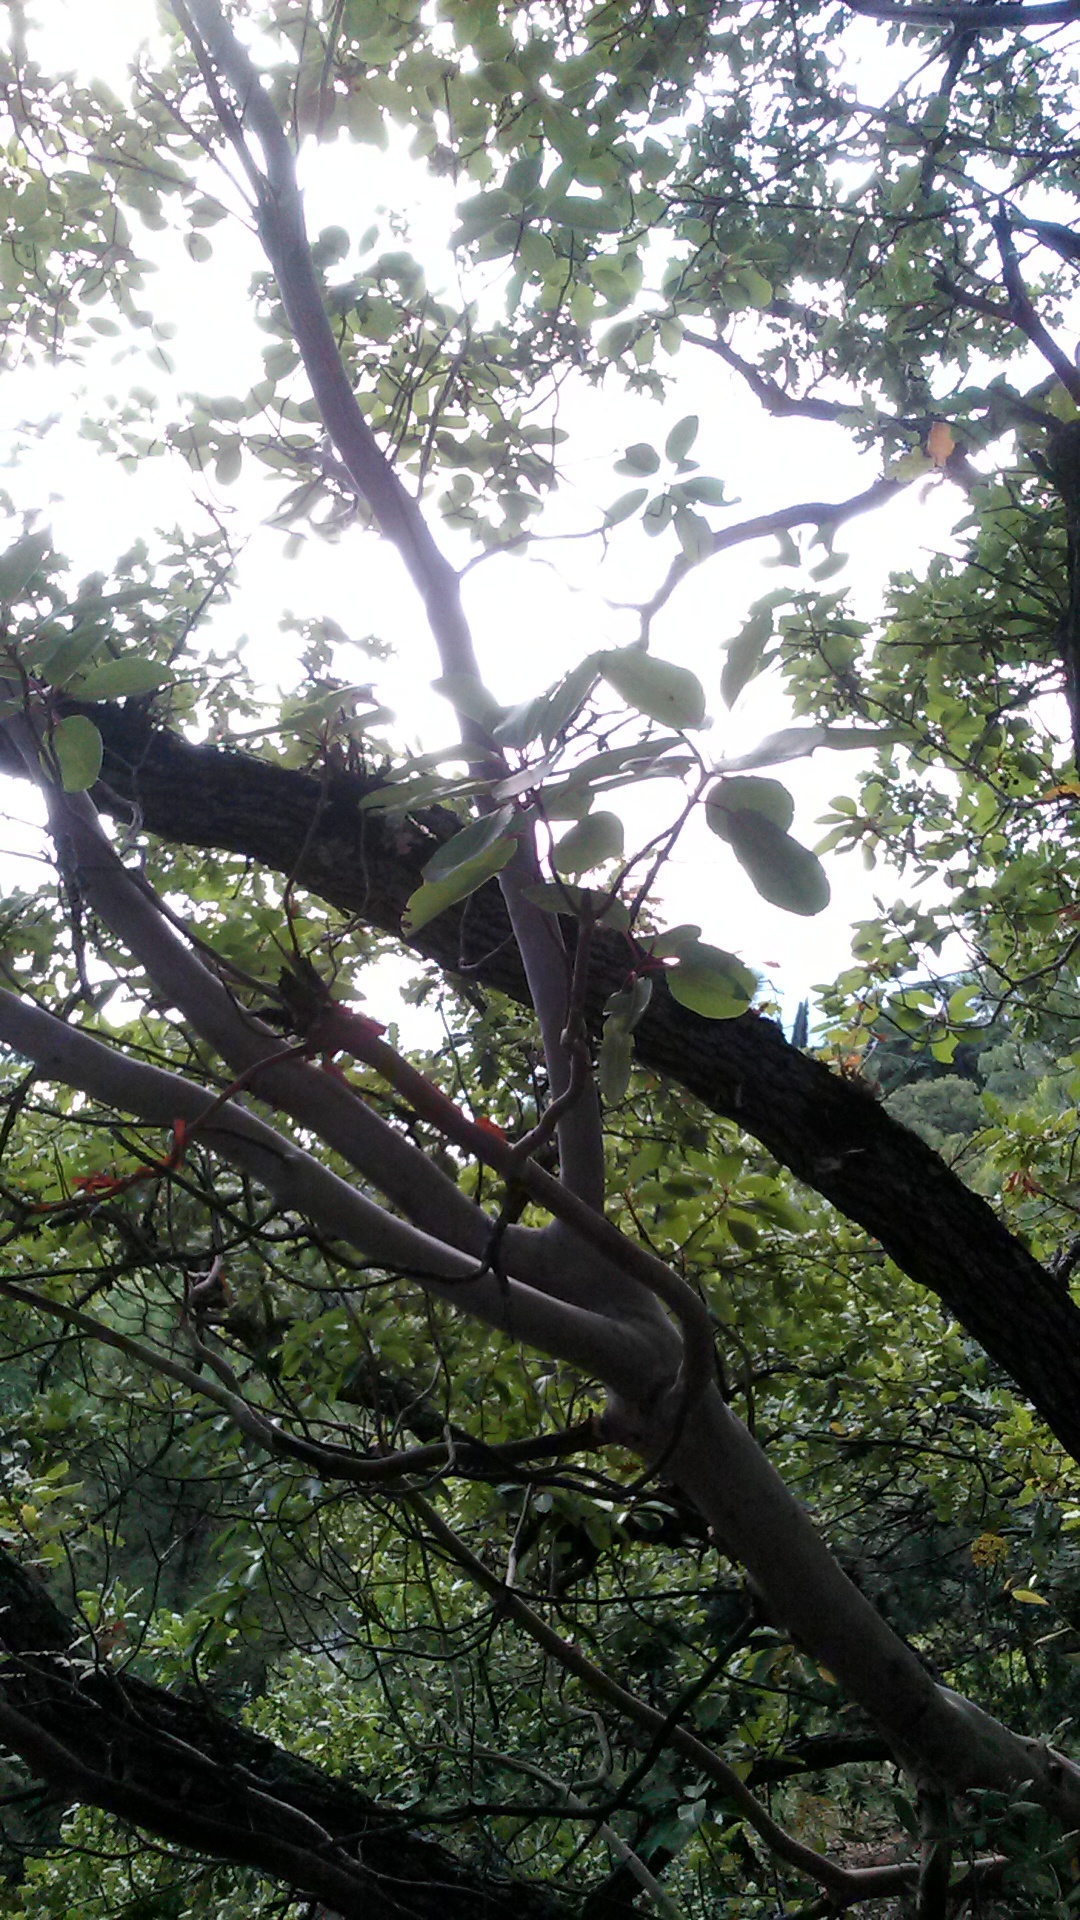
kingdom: Plantae
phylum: Tracheophyta
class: Magnoliopsida
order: Ericales
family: Ericaceae
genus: Arbutus
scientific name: Arbutus andrachne
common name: Greek strawberry tree
